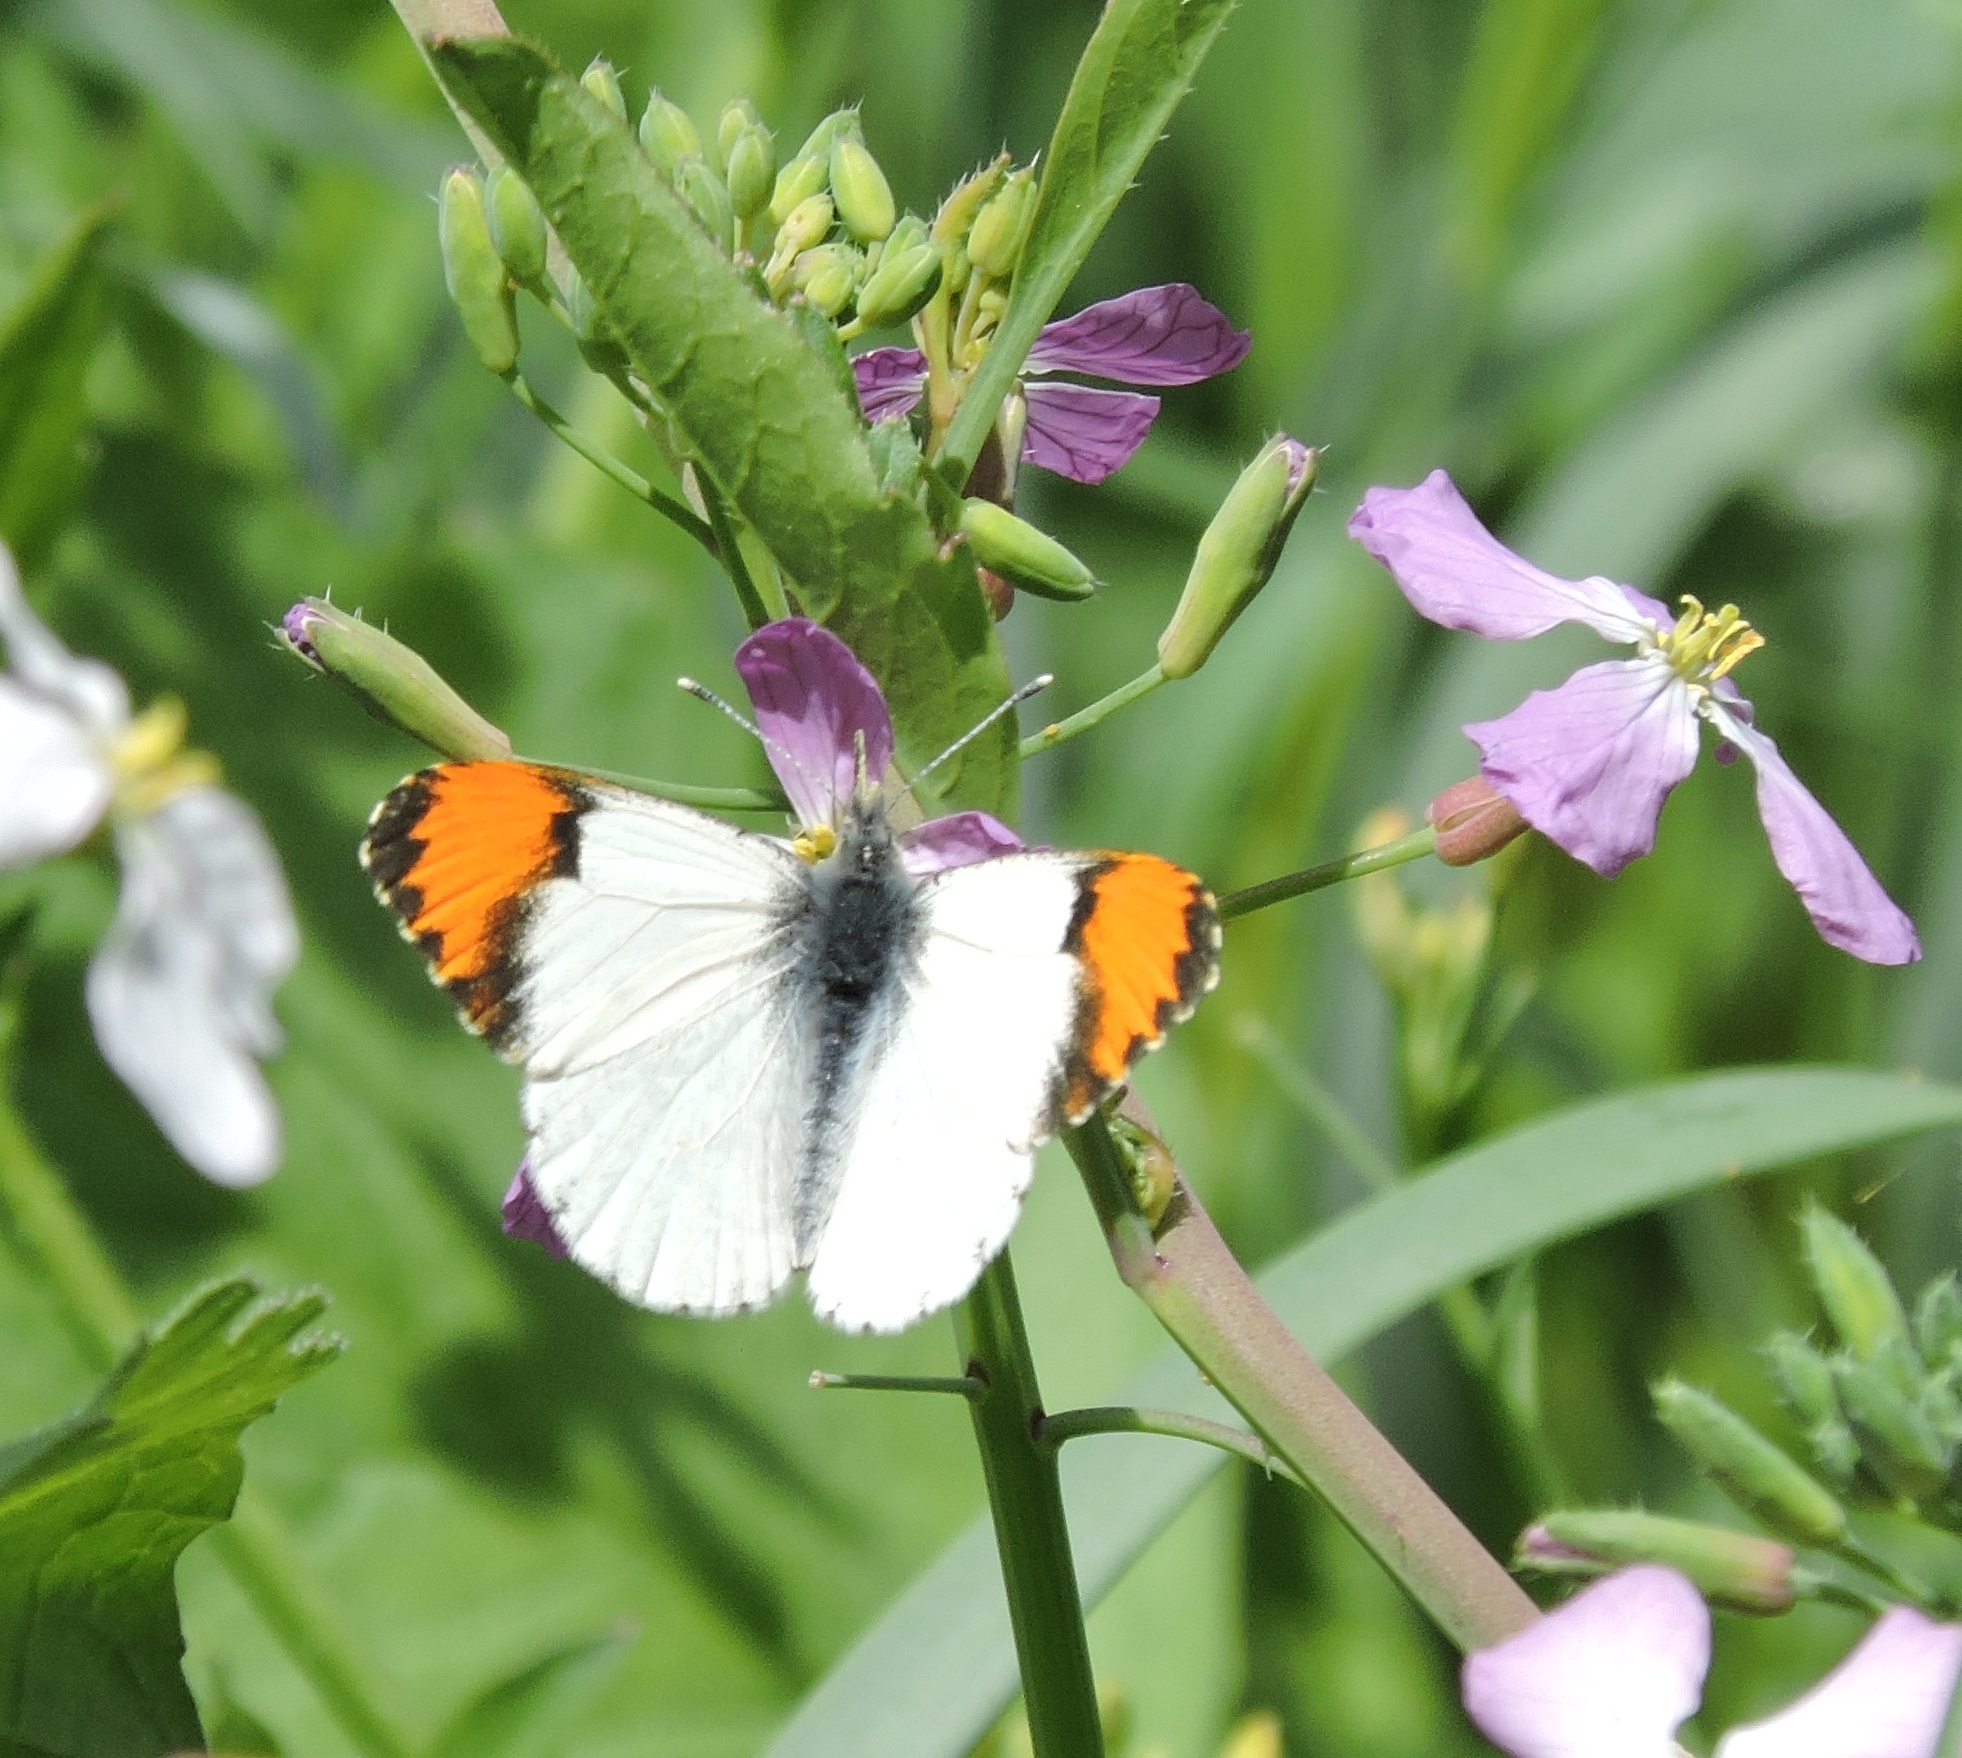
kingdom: Animalia
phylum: Arthropoda
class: Insecta
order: Lepidoptera
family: Pieridae
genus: Anthocharis
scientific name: Anthocharis sara
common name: Sara's orangetip
